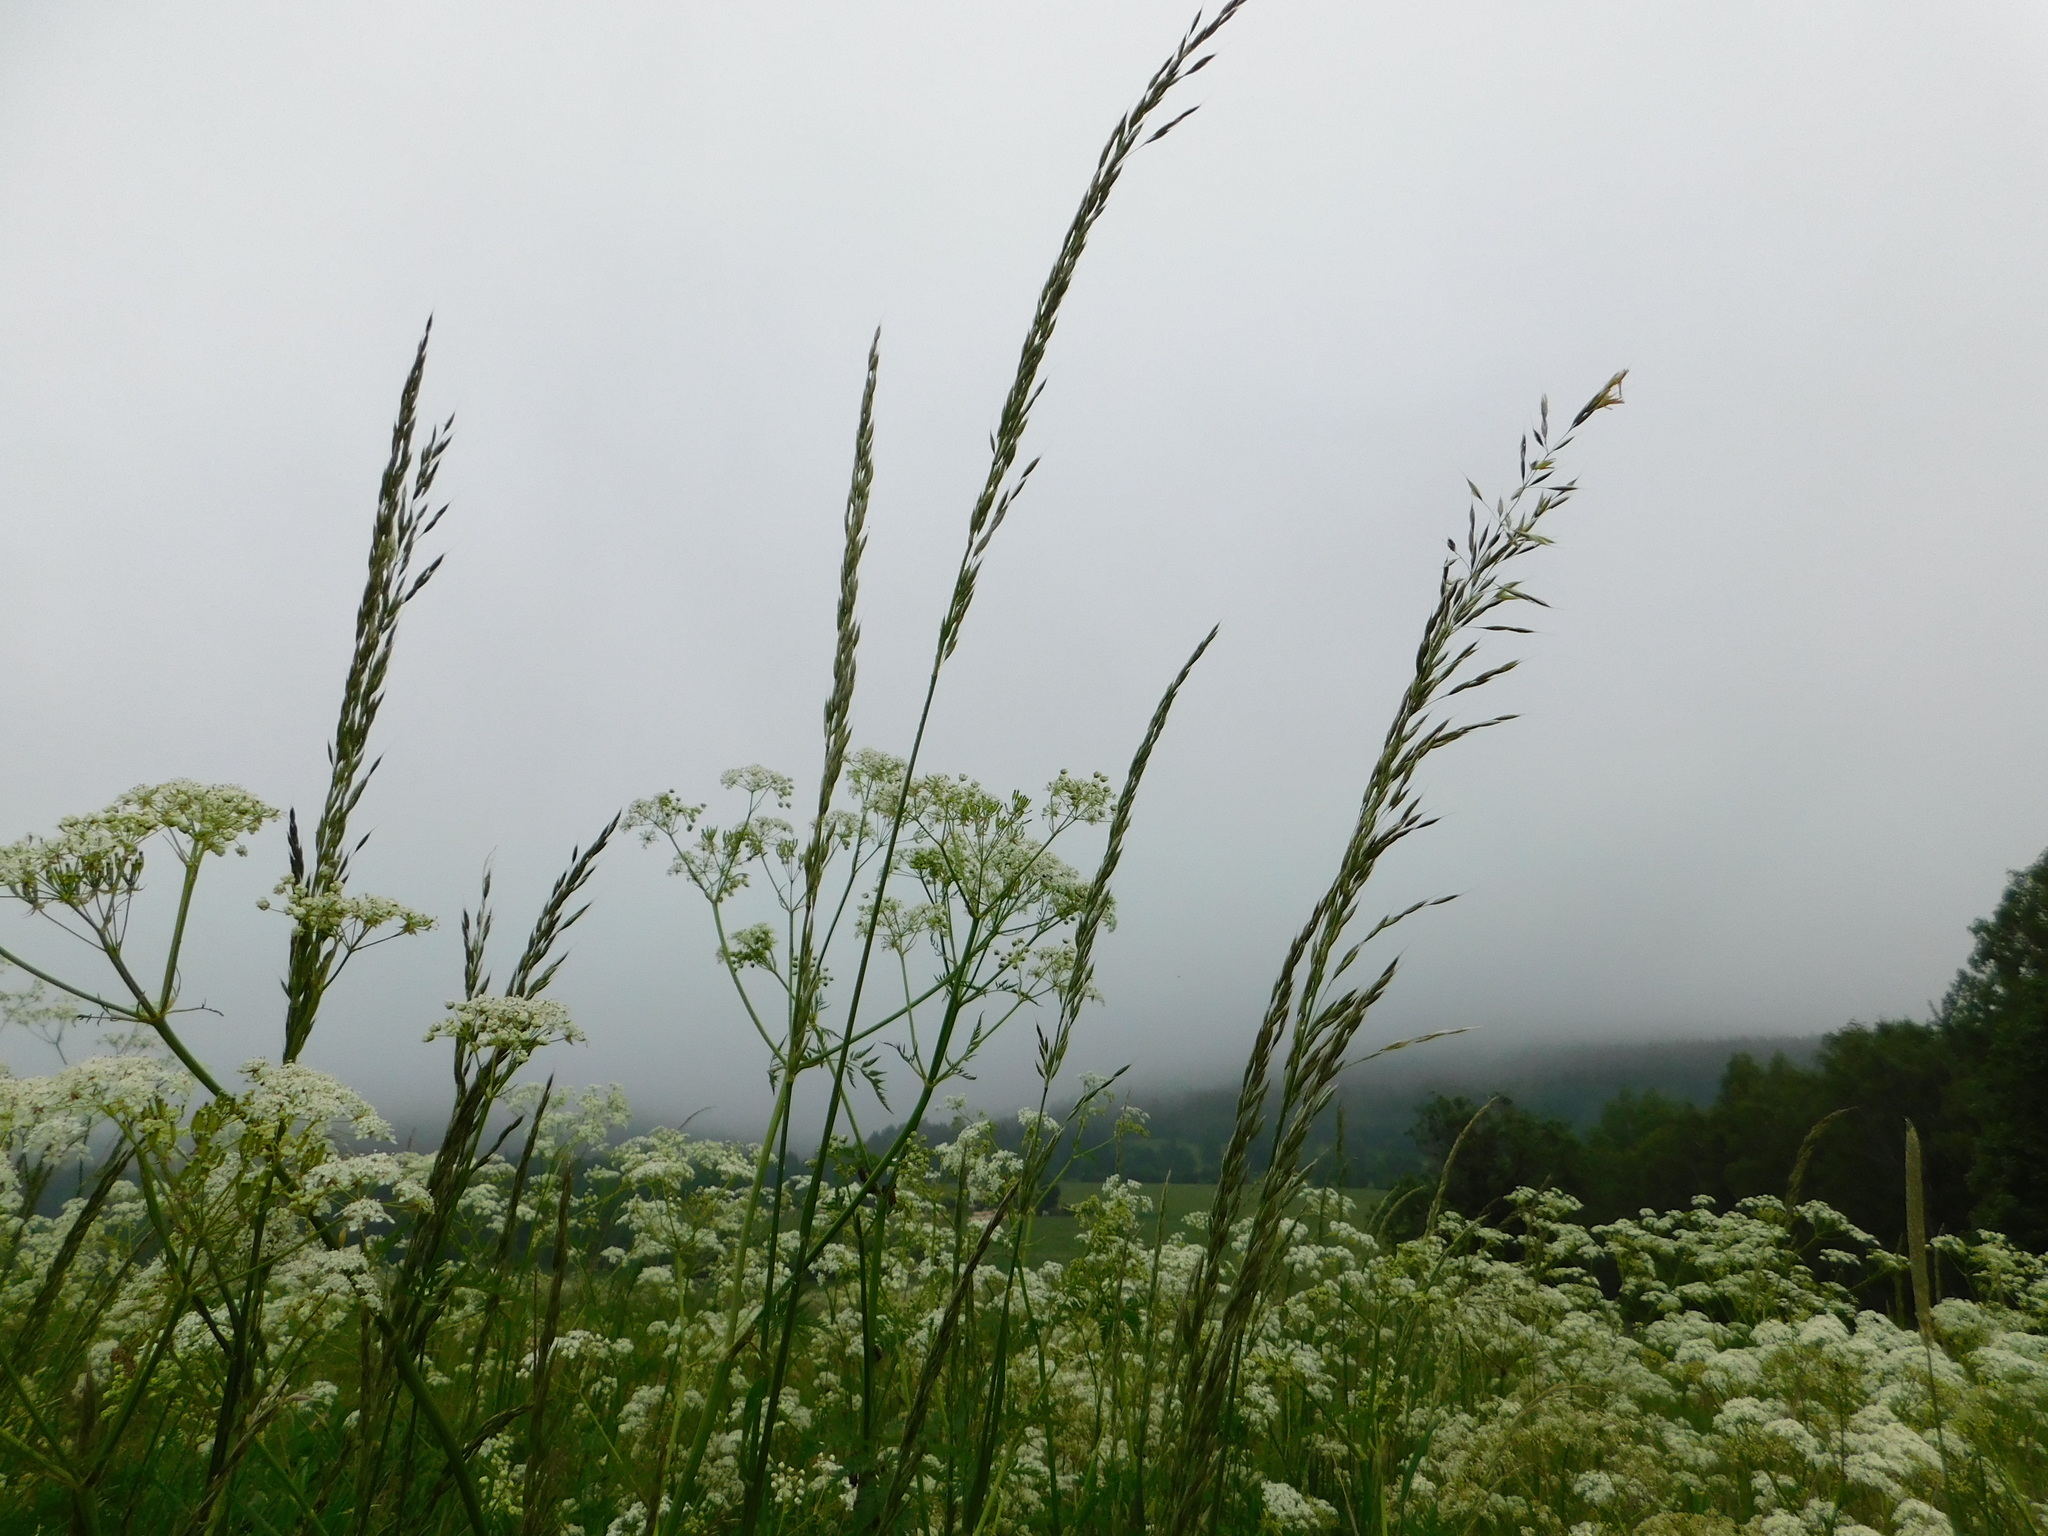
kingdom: Plantae
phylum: Tracheophyta
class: Liliopsida
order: Poales
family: Poaceae
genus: Arrhenatherum
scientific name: Arrhenatherum elatius
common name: Tall oatgrass
